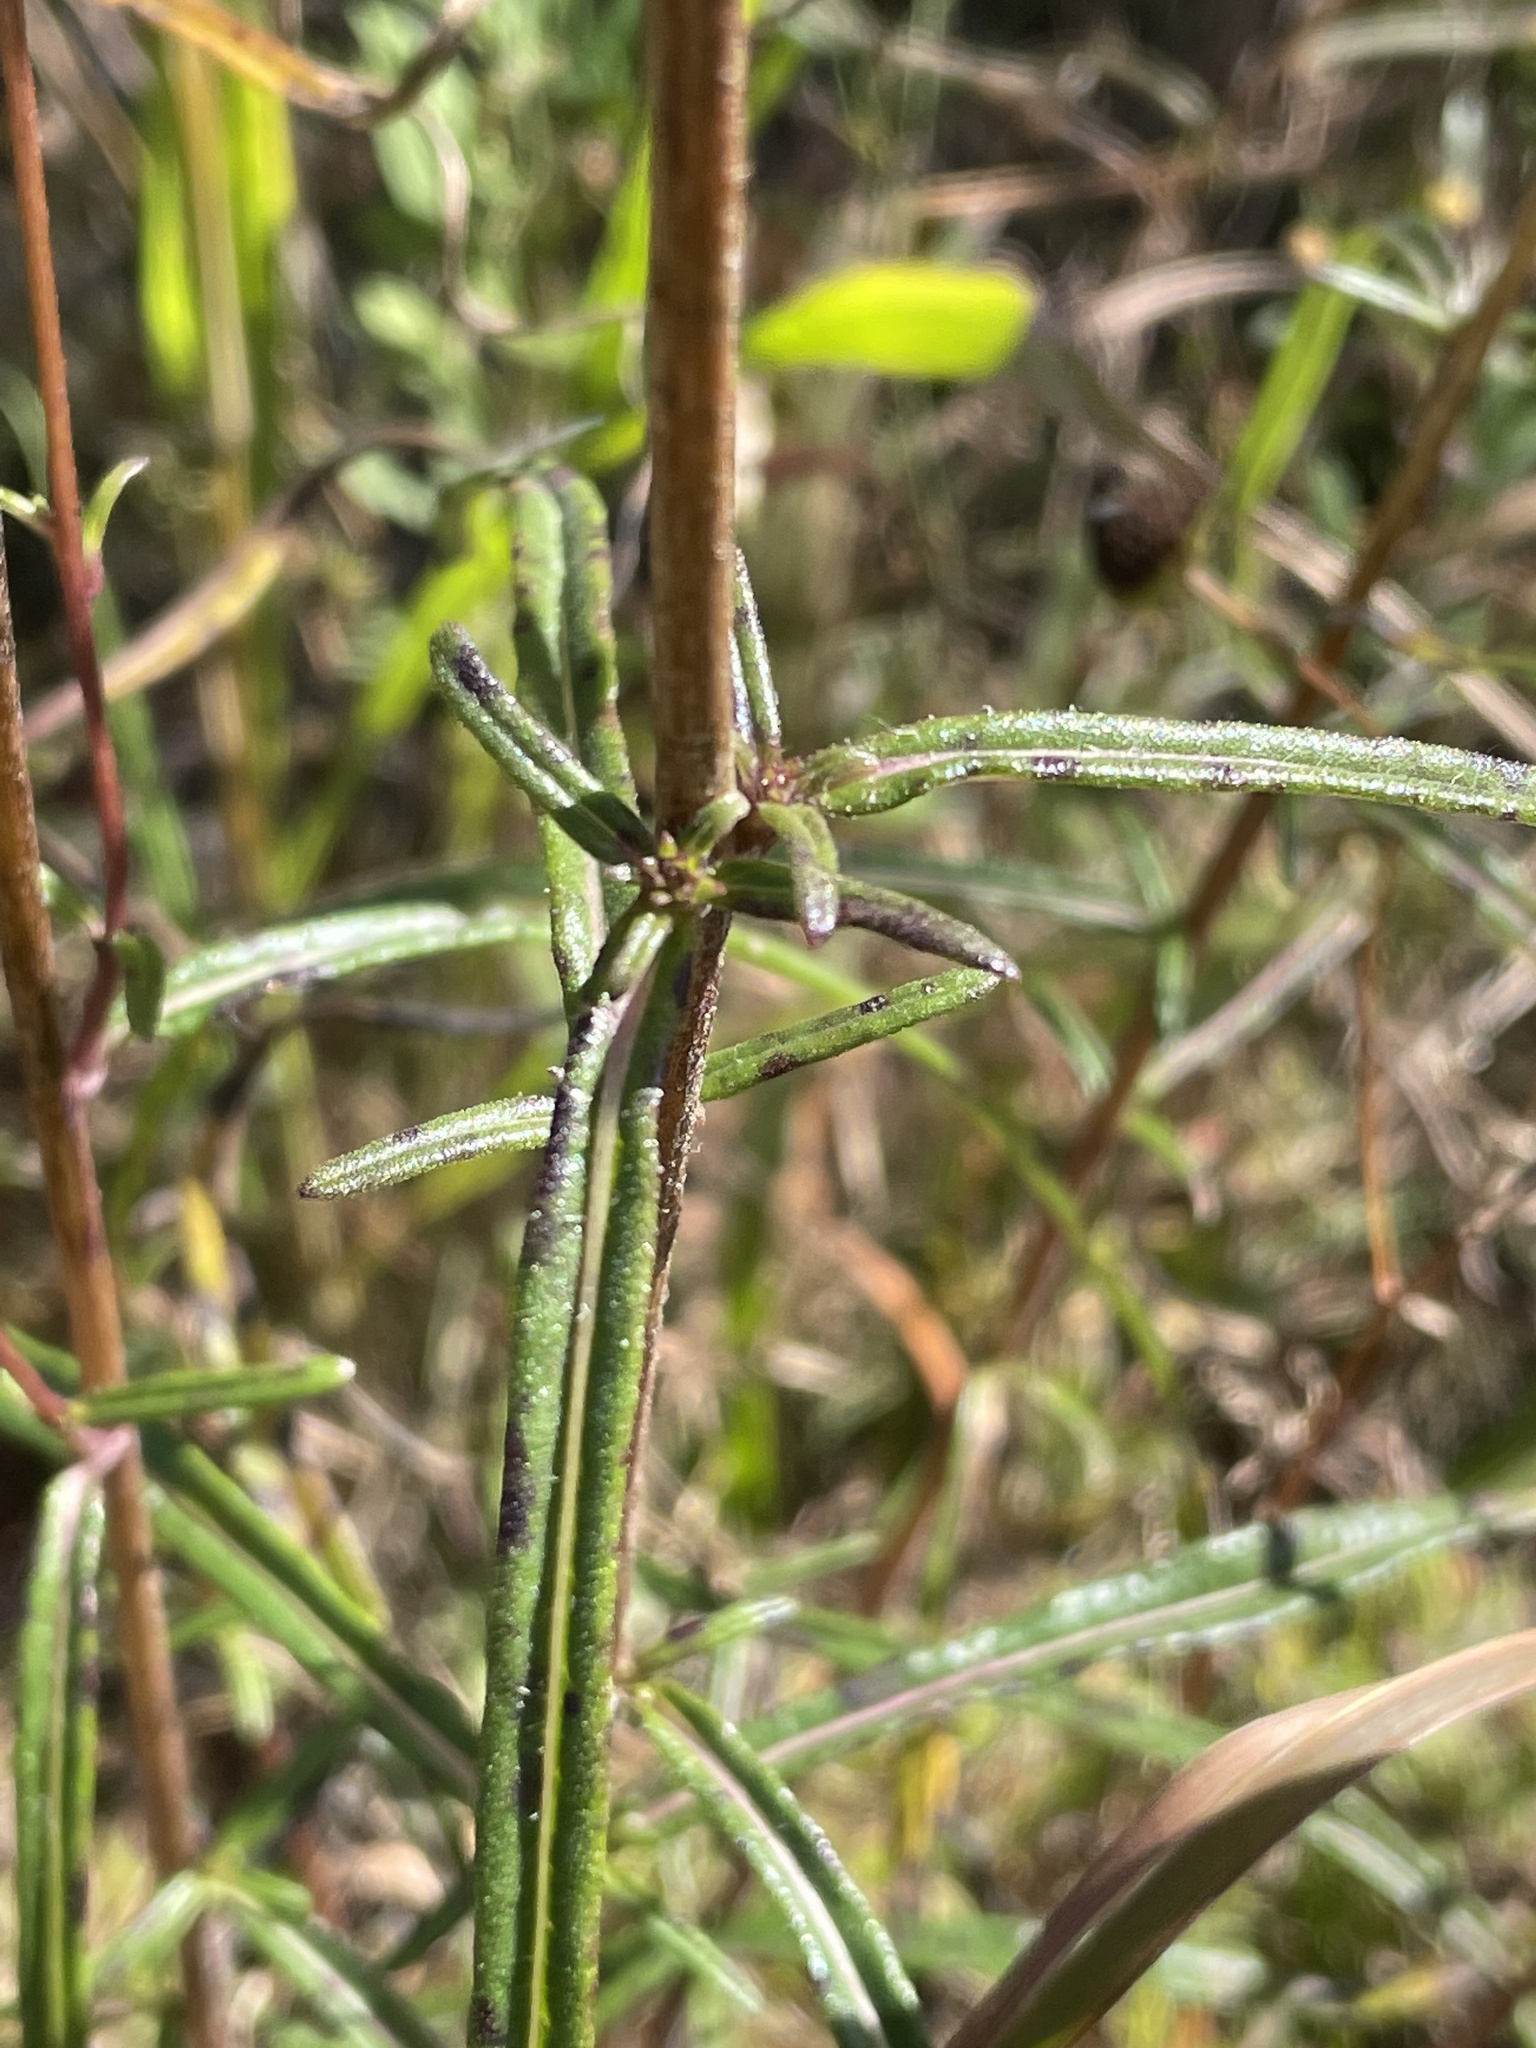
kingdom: Plantae
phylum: Tracheophyta
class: Magnoliopsida
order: Asterales
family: Asteraceae
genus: Helianthus
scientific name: Helianthus angustifolius
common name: Swamp sunflower
